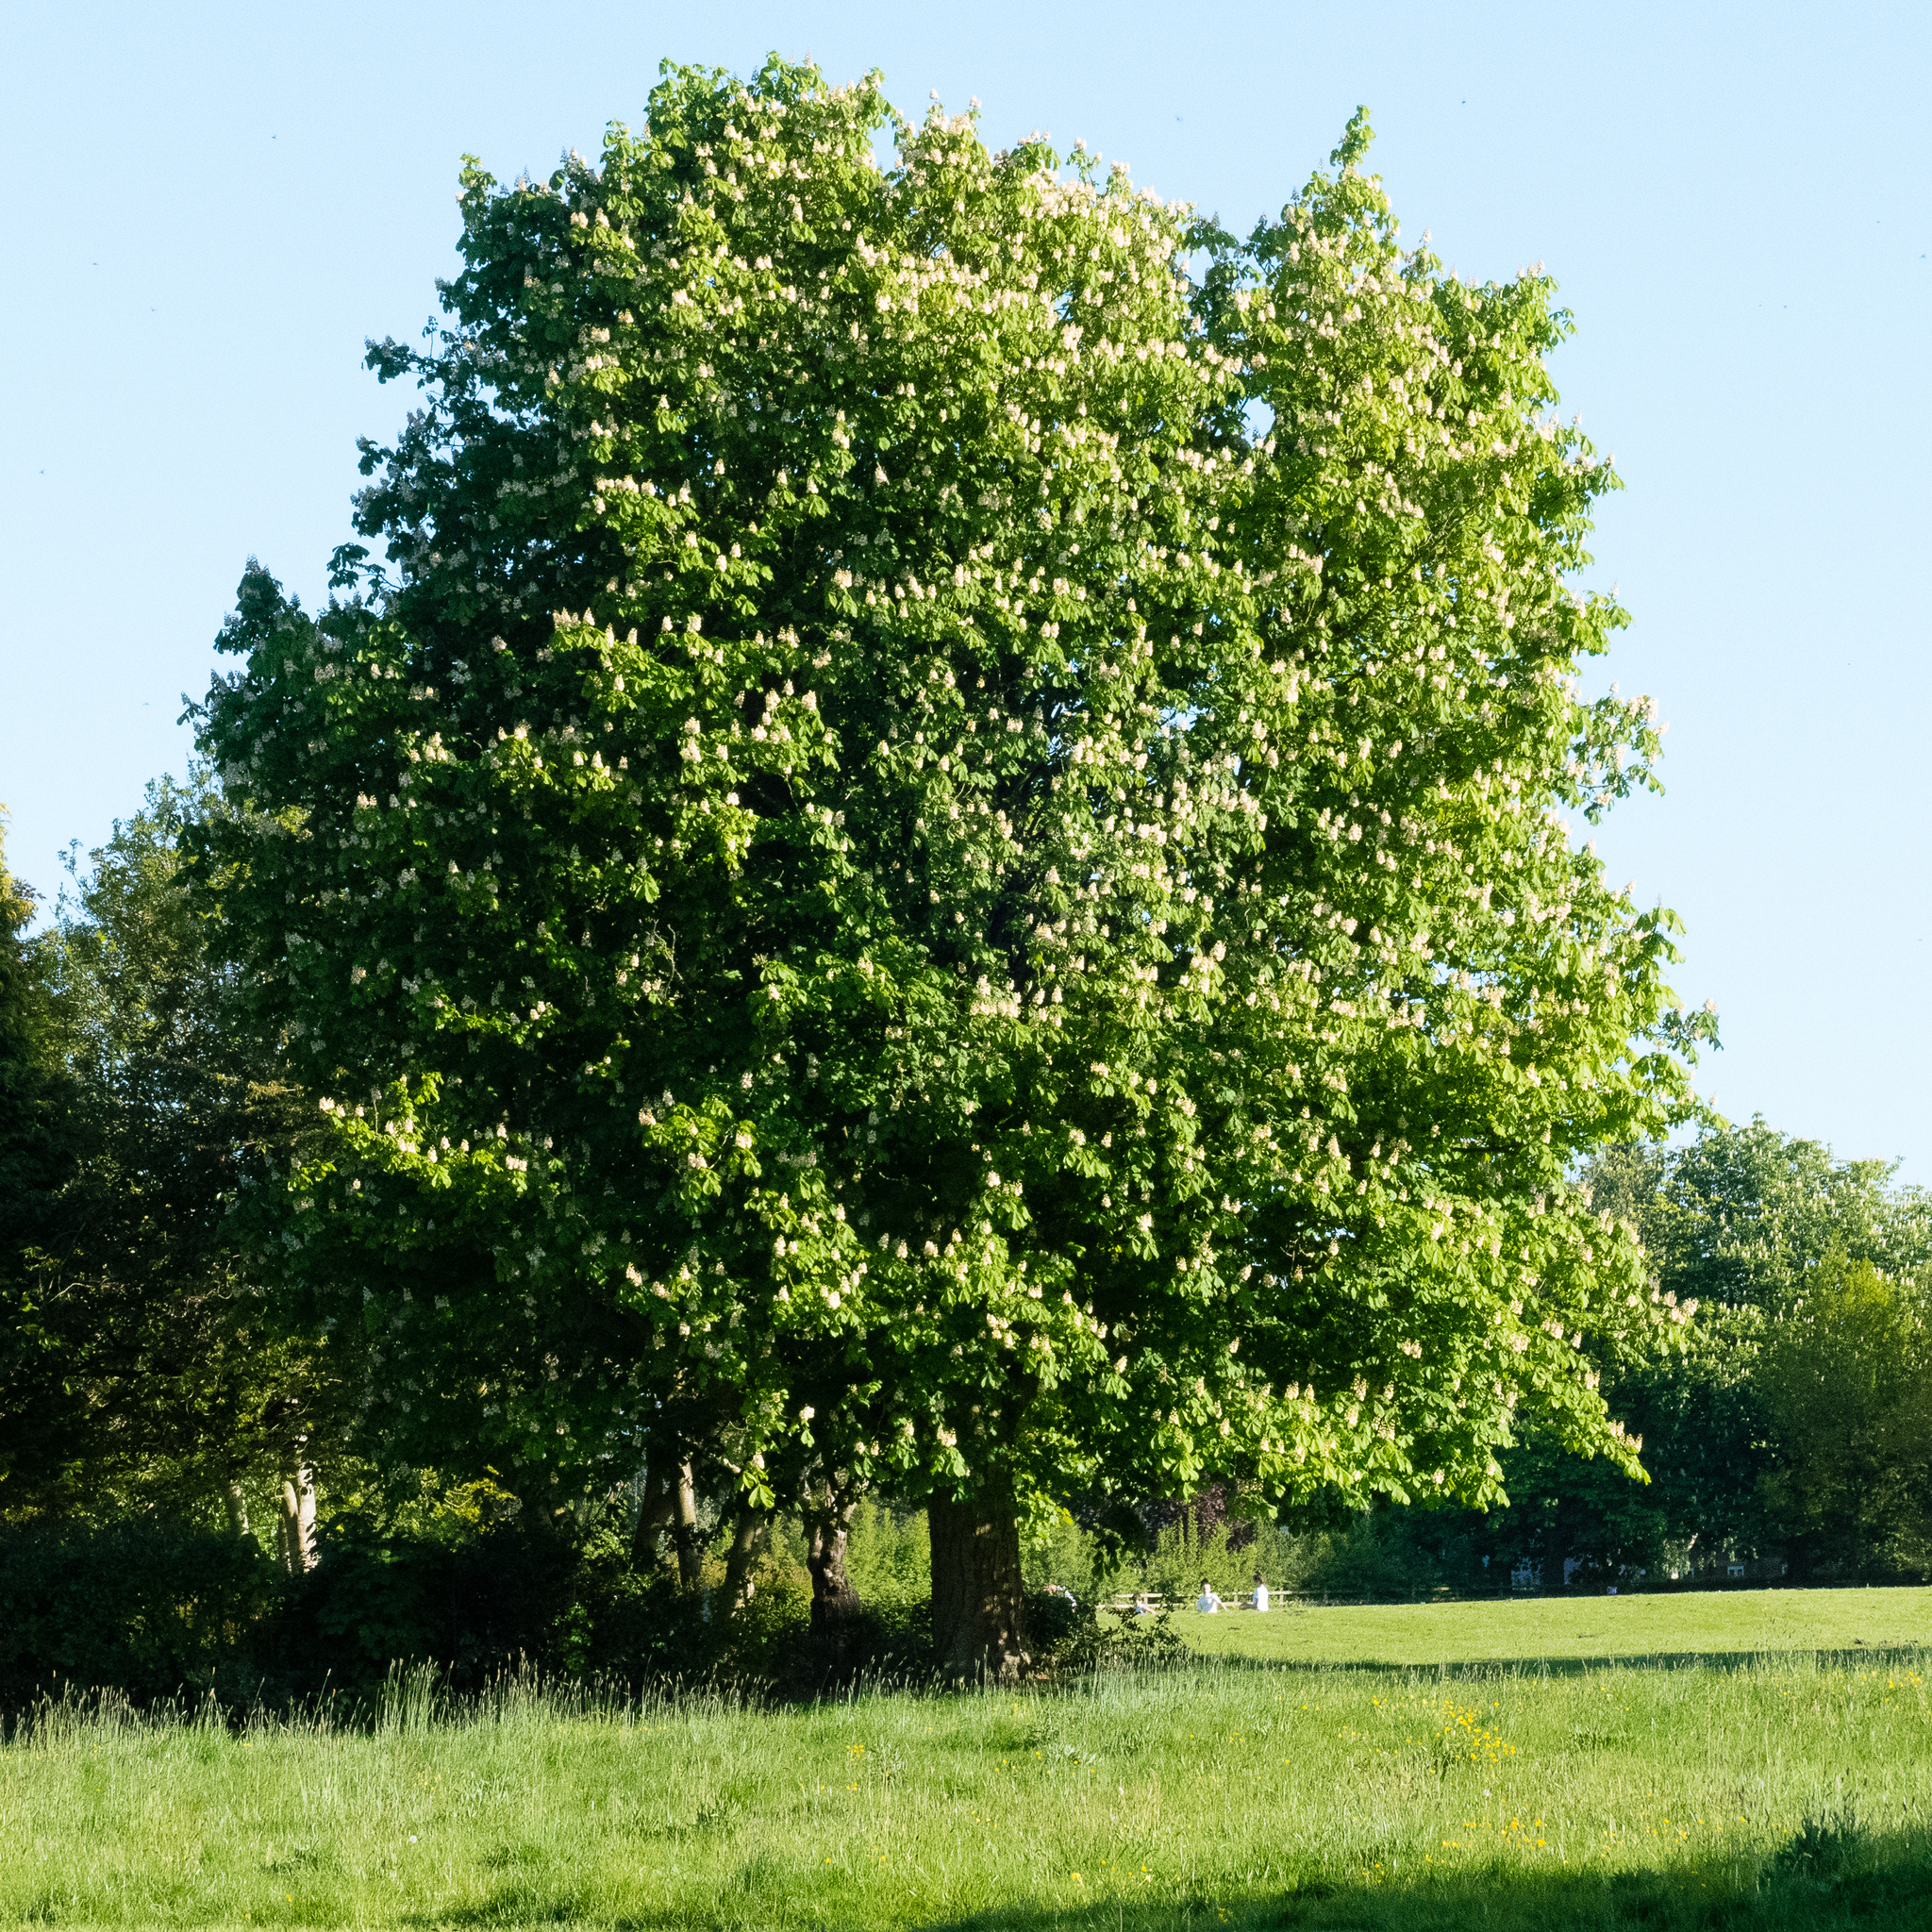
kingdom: Plantae
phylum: Tracheophyta
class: Magnoliopsida
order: Sapindales
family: Sapindaceae
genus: Aesculus
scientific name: Aesculus hippocastanum
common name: Horse-chestnut
